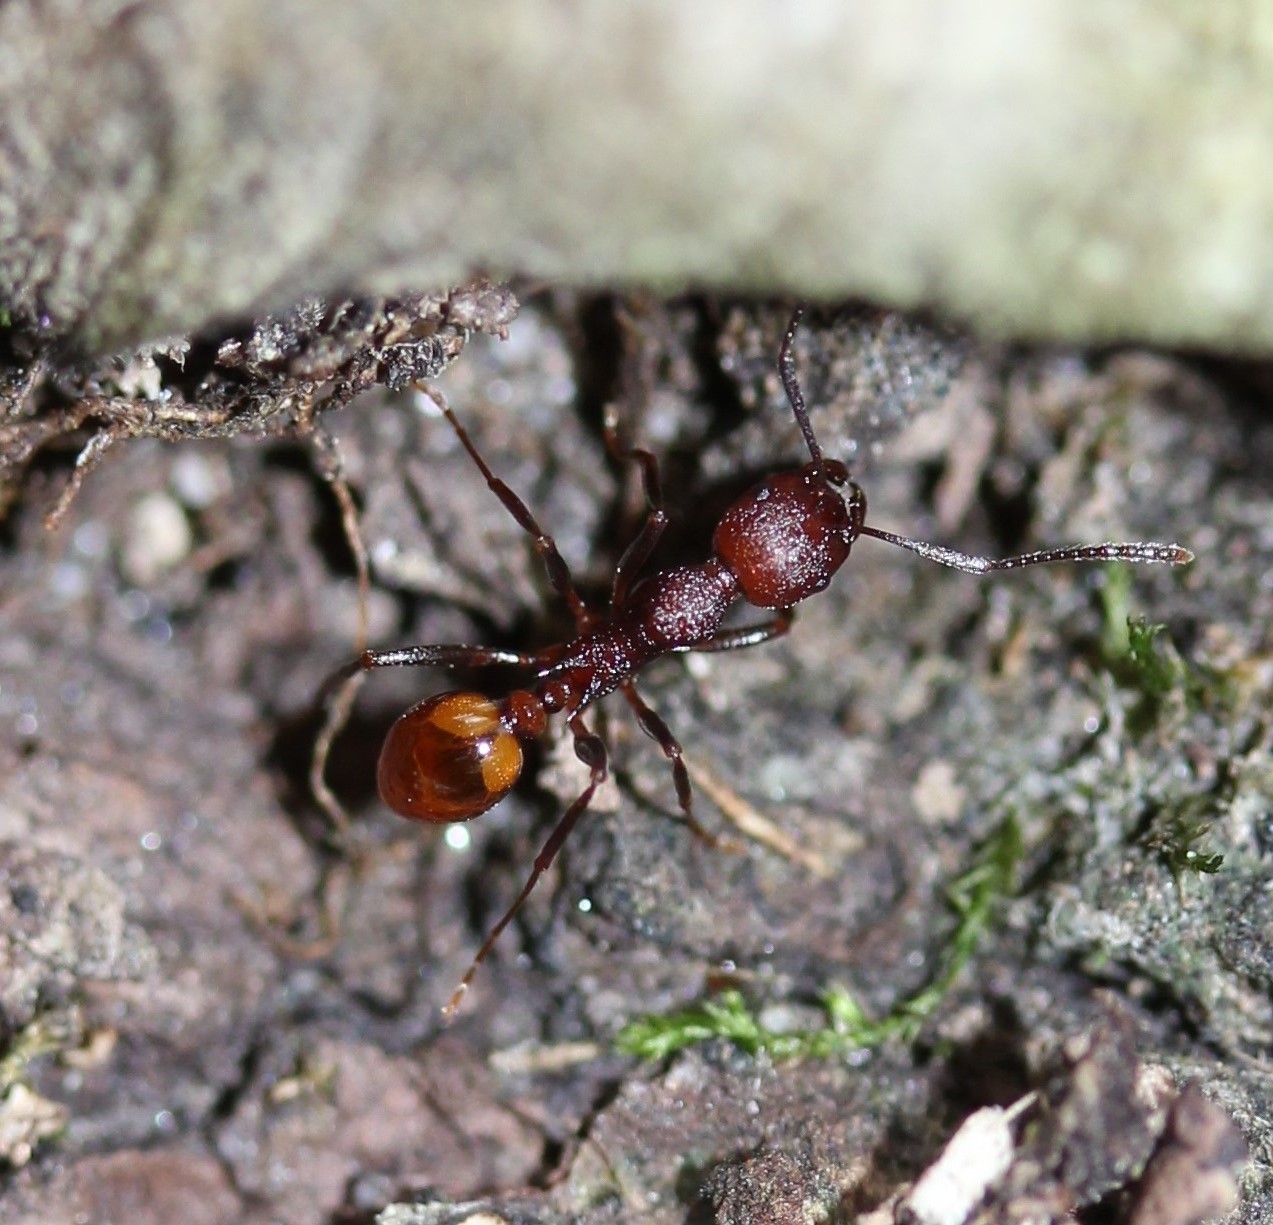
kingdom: Animalia
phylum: Arthropoda
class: Insecta
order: Hymenoptera
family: Formicidae
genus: Aphaenogaster
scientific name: Aphaenogaster tennesseensis
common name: Tennessee thread-waisted ant
